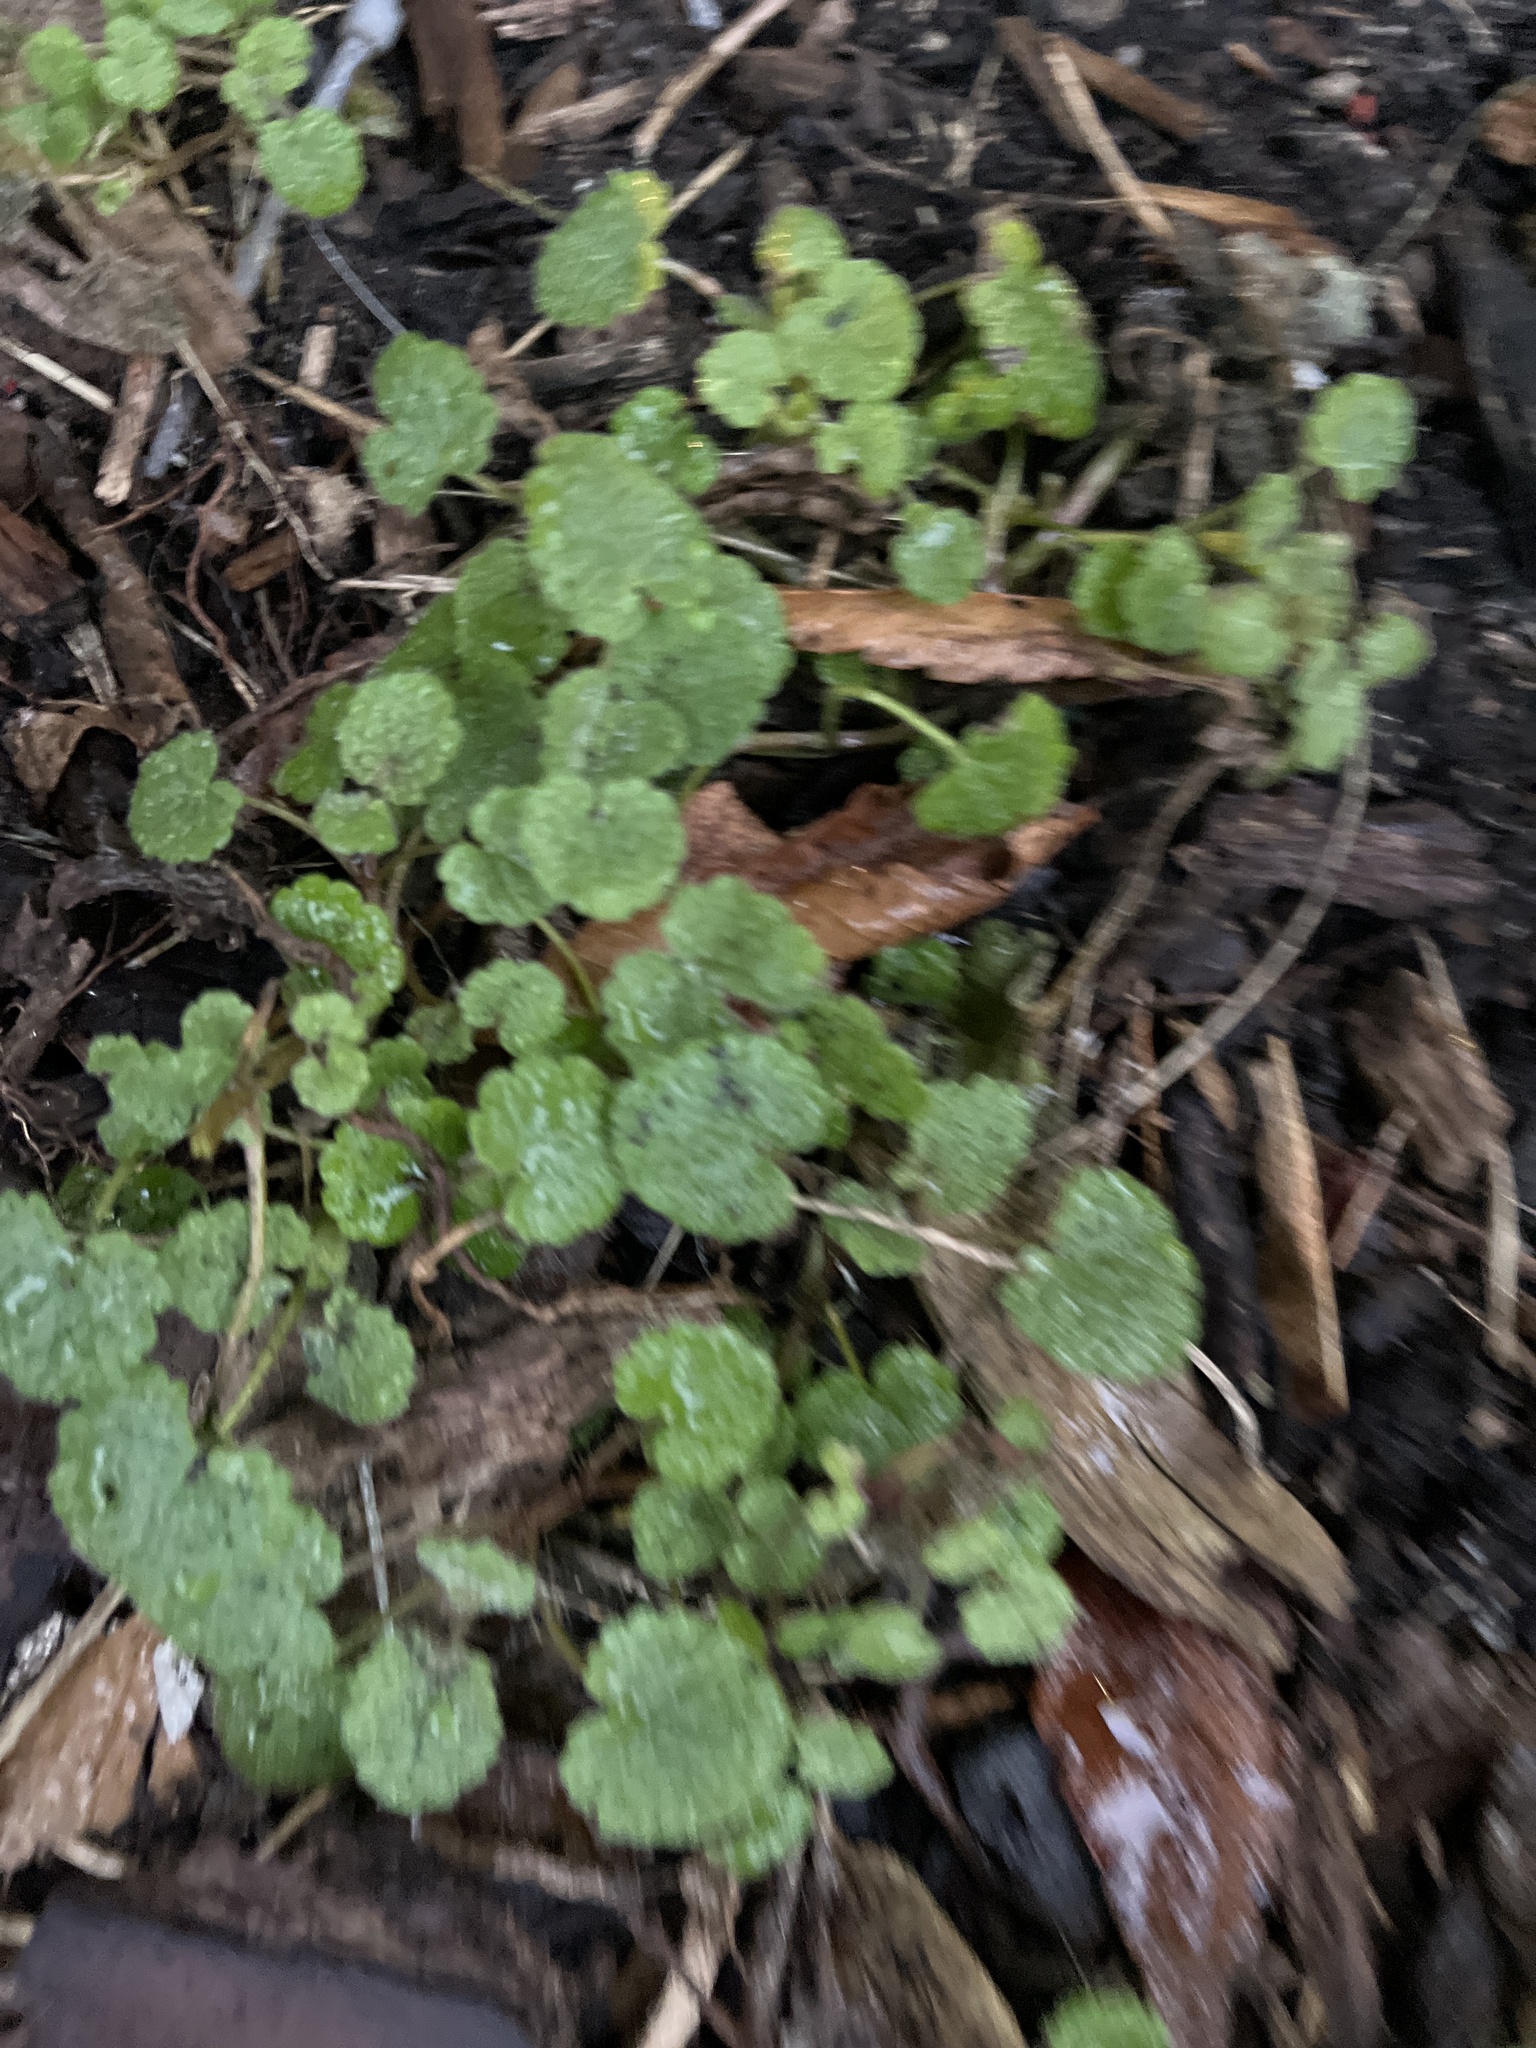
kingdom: Plantae
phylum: Tracheophyta
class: Magnoliopsida
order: Lamiales
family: Lamiaceae
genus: Lamium
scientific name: Lamium purpureum
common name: Red dead-nettle
